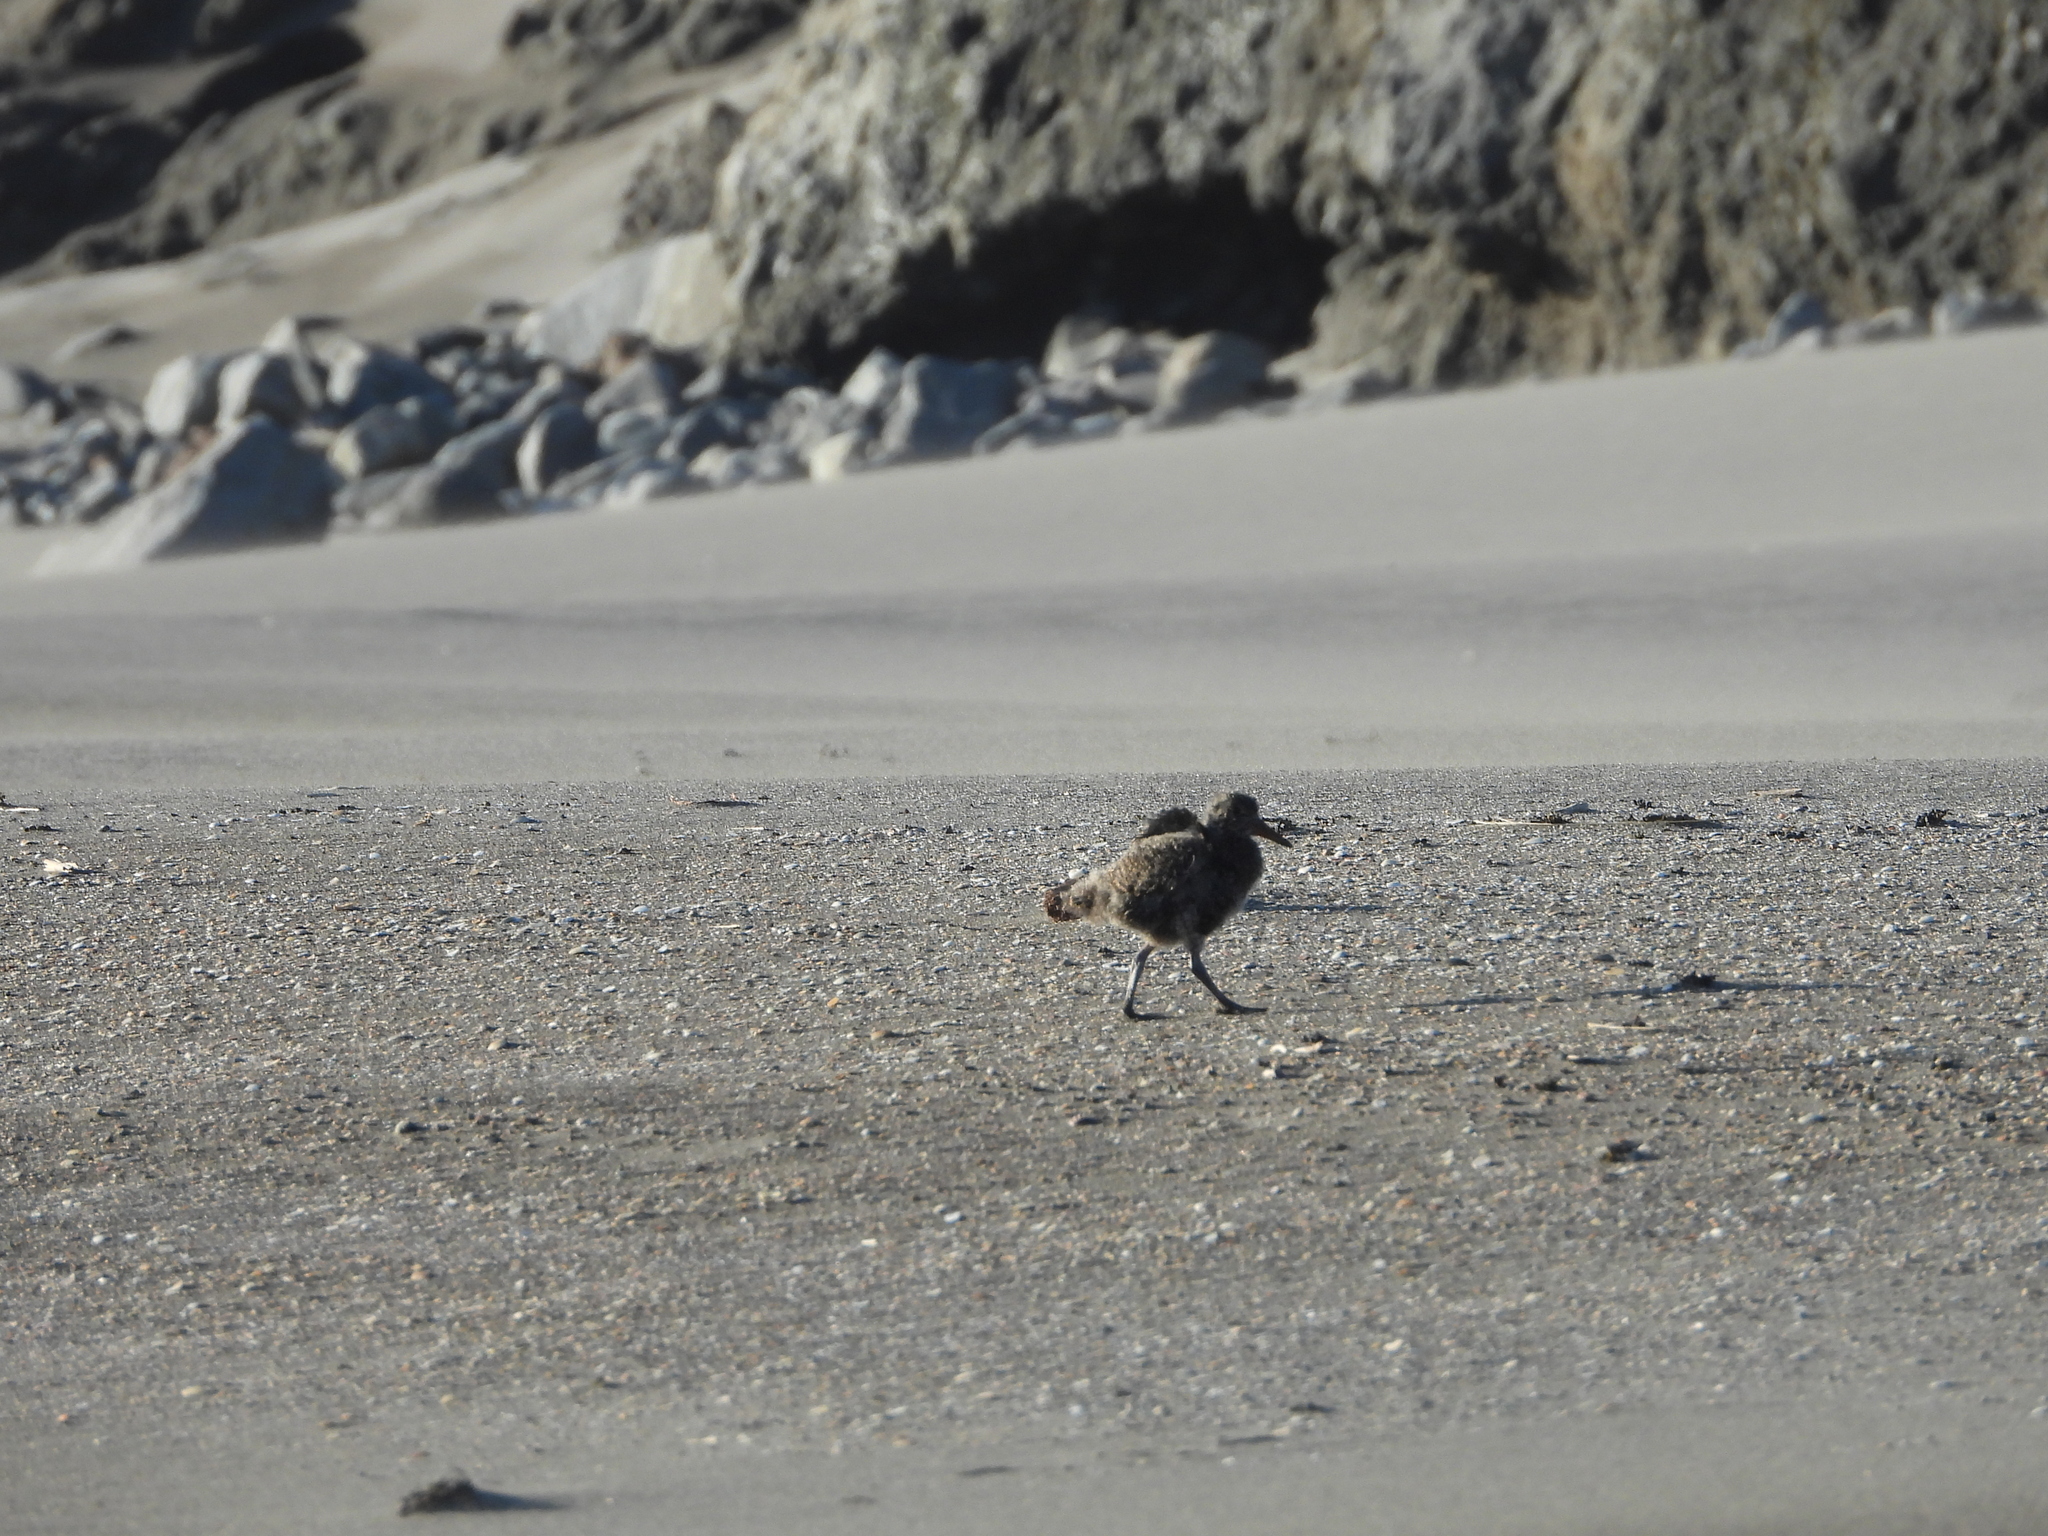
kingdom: Animalia
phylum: Chordata
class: Aves
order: Charadriiformes
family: Haematopodidae
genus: Haematopus
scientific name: Haematopus unicolor
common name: Variable oystercatcher
